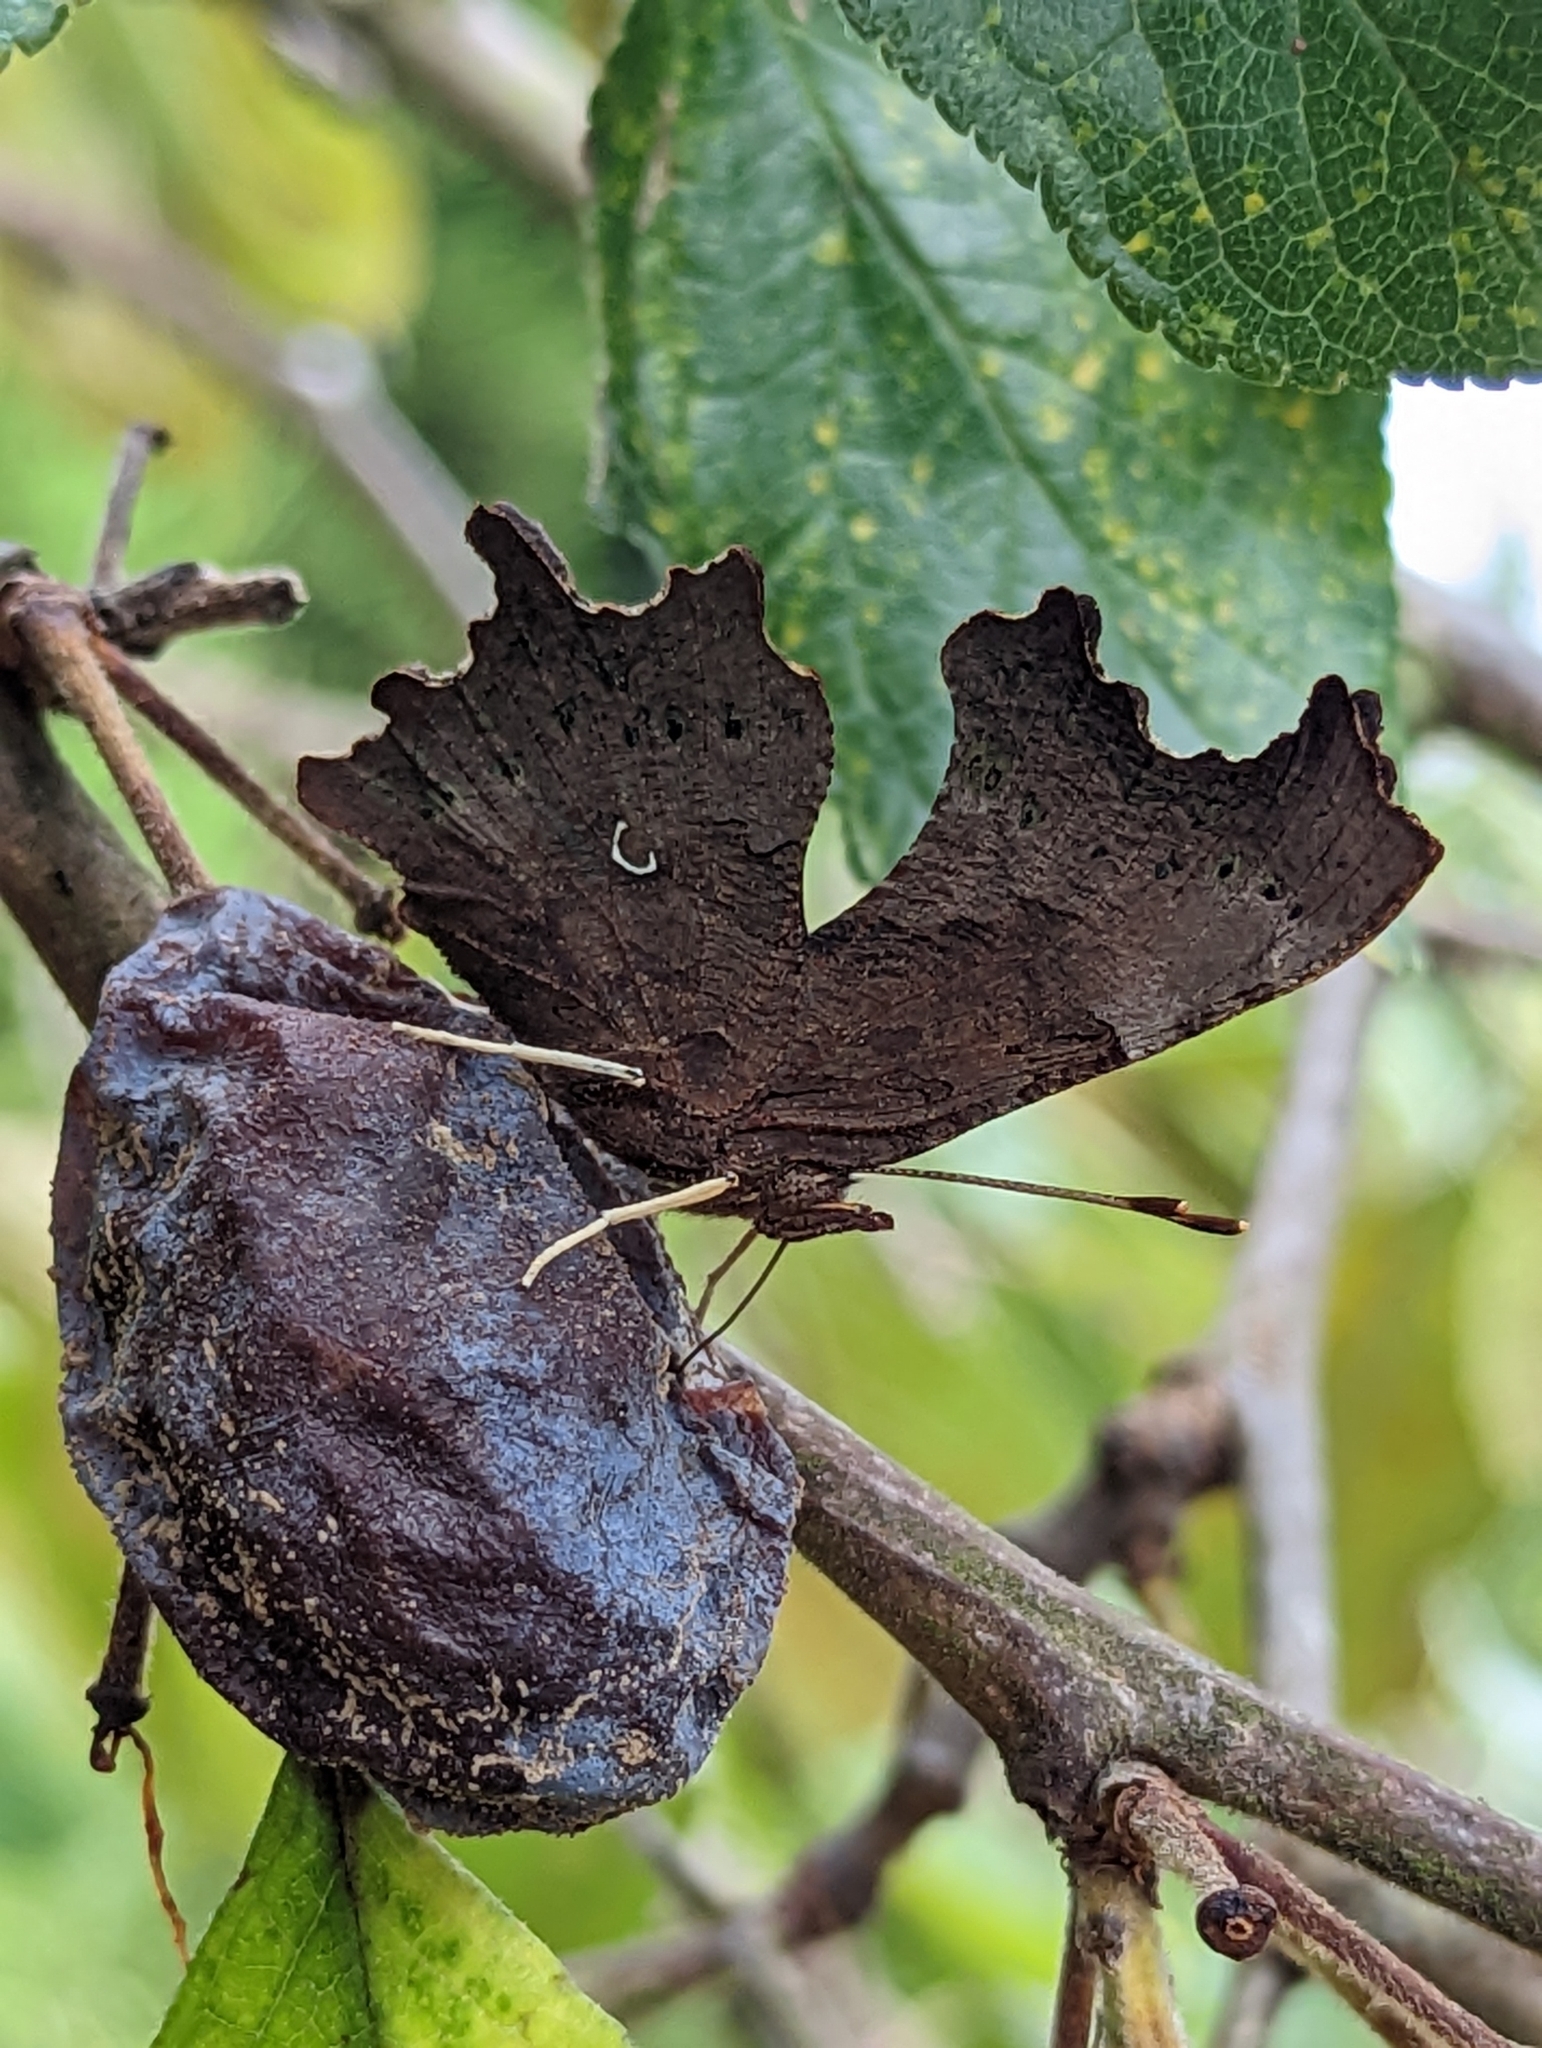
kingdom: Animalia
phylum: Arthropoda
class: Insecta
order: Lepidoptera
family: Nymphalidae
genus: Polygonia
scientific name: Polygonia c-album
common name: Comma
